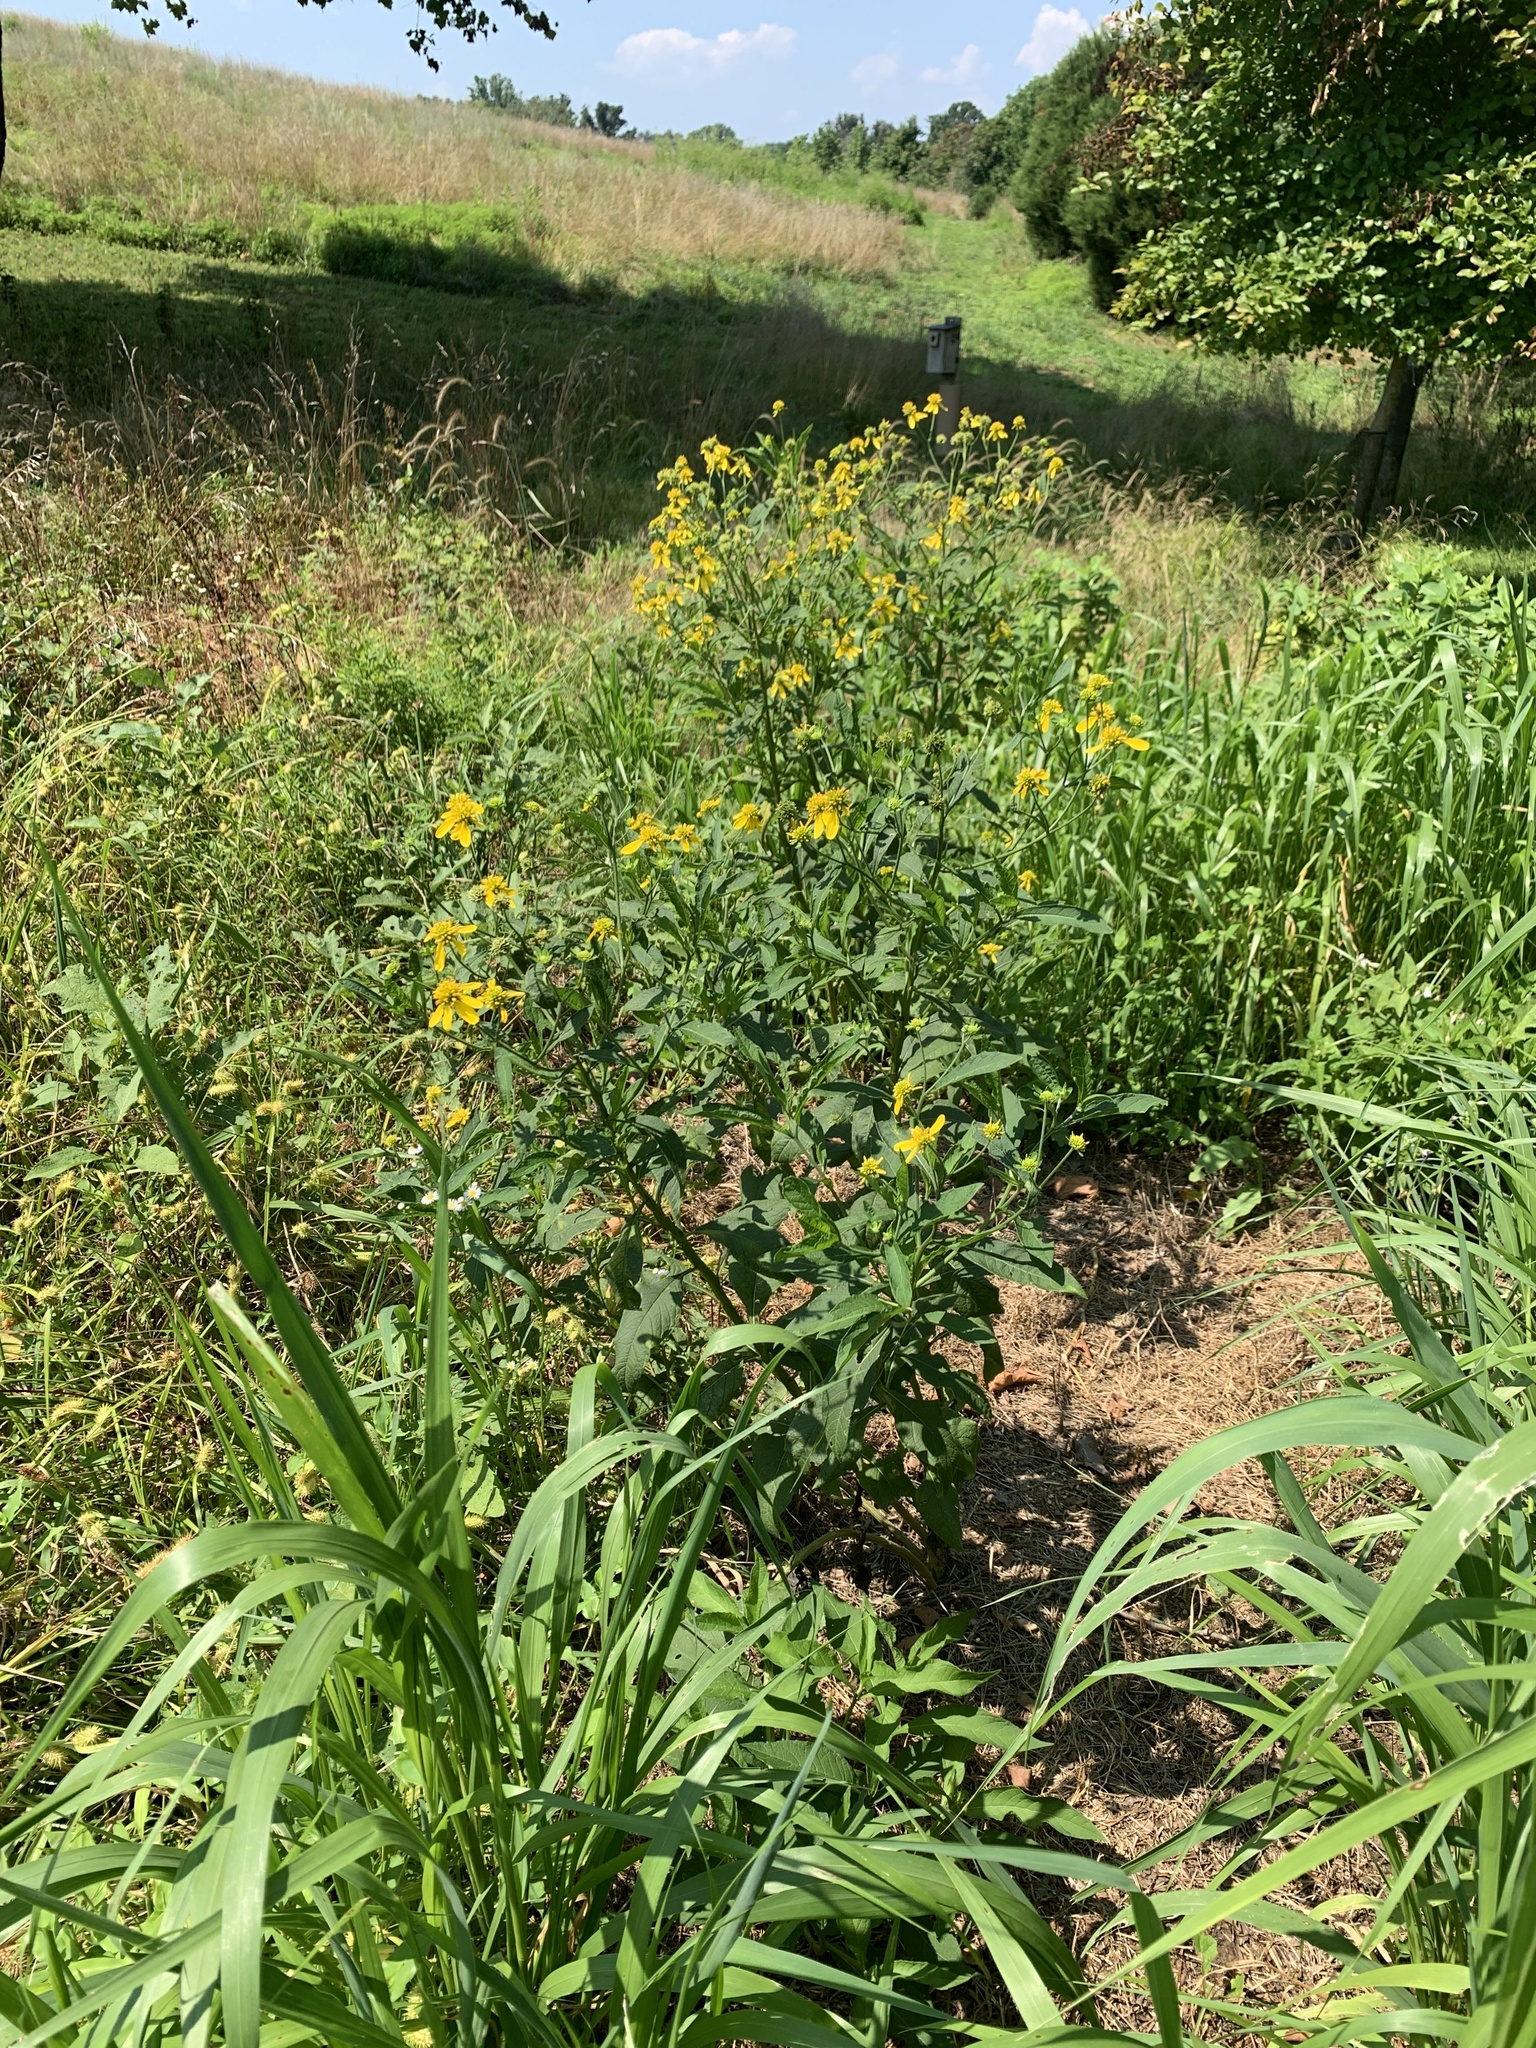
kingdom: Plantae
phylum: Tracheophyta
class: Magnoliopsida
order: Asterales
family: Asteraceae
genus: Verbesina
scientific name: Verbesina alternifolia
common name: Wingstem
